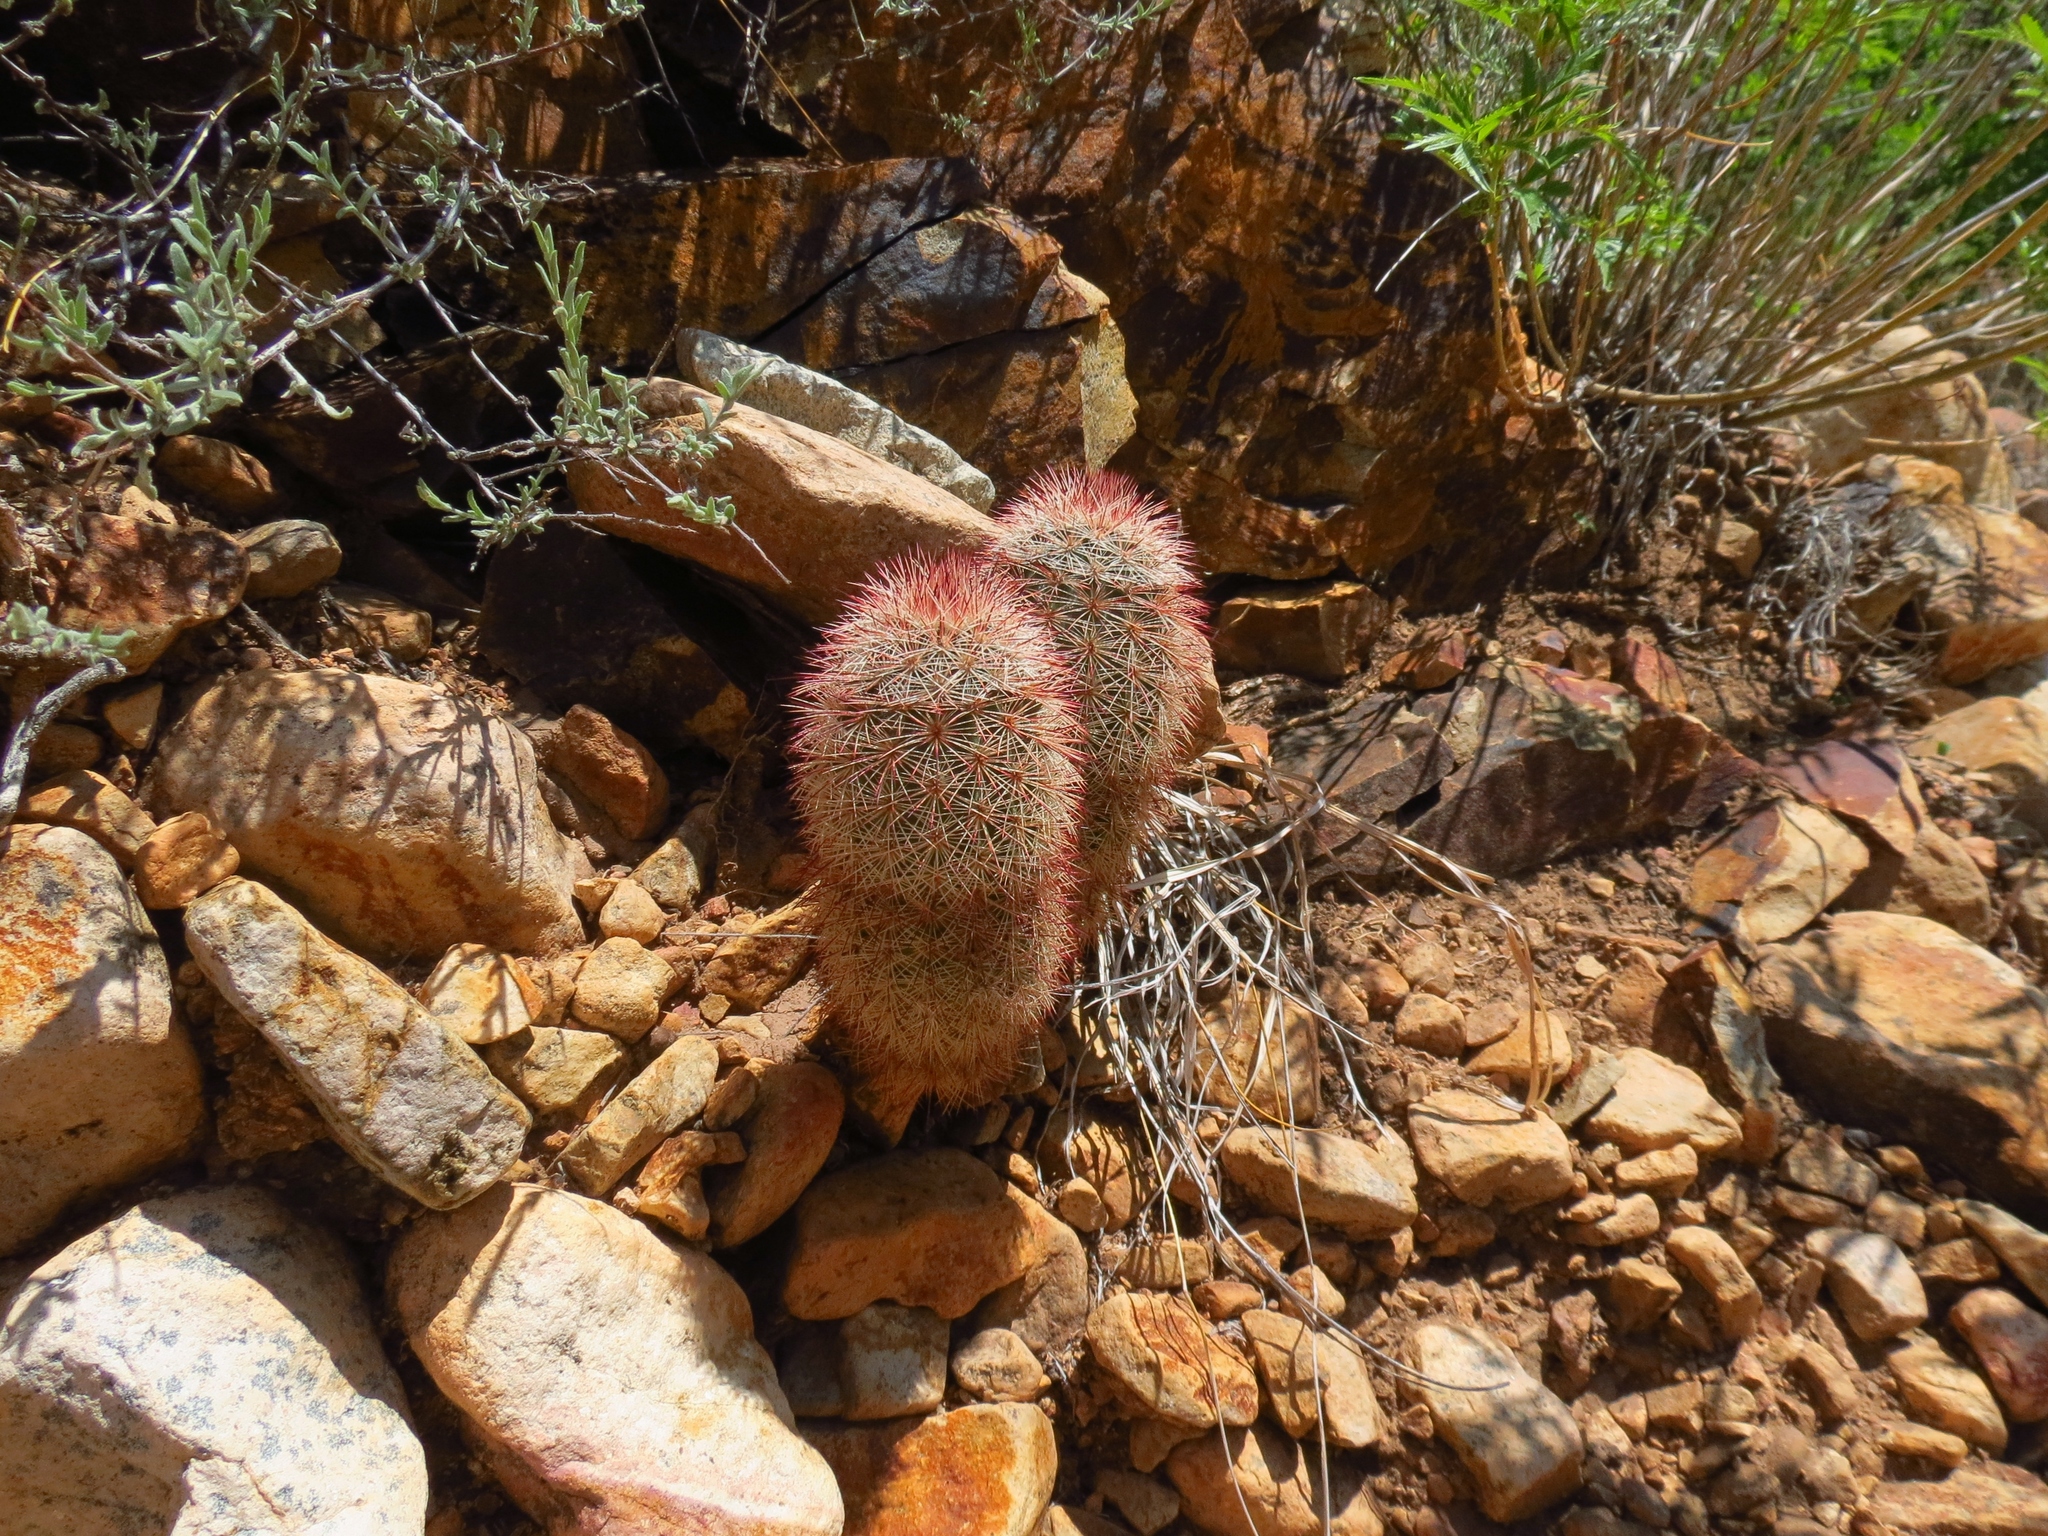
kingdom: Plantae
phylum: Tracheophyta
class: Magnoliopsida
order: Caryophyllales
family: Cactaceae
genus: Echinocereus
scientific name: Echinocereus russanthus
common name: Brownspine hedgehog cactus
